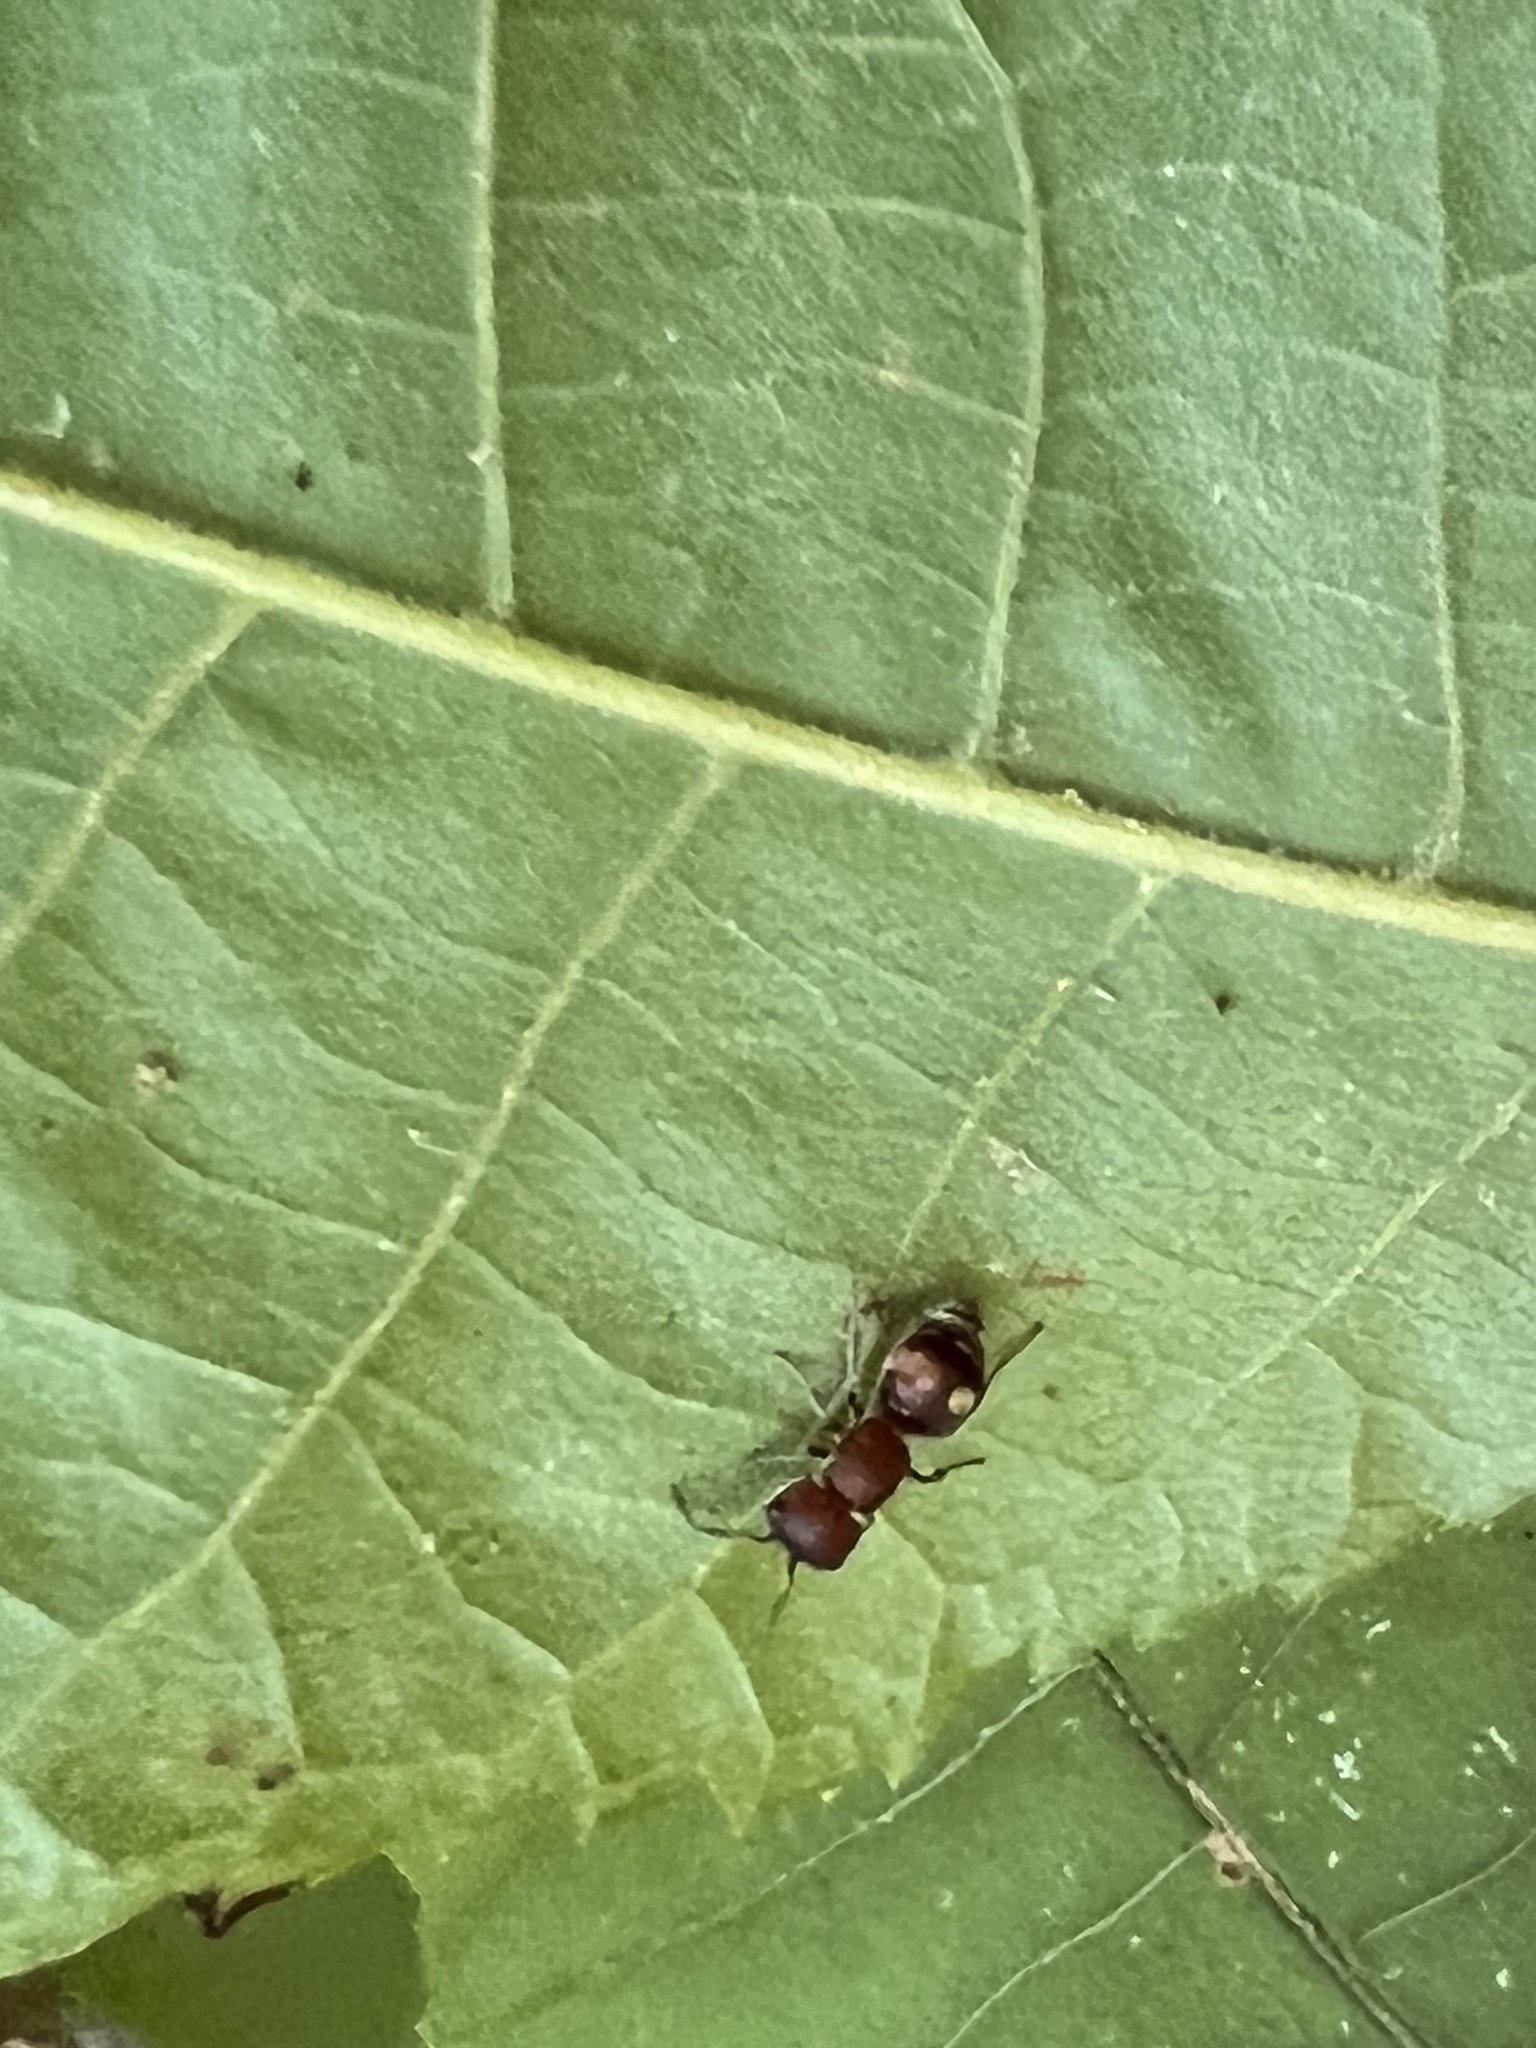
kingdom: Animalia
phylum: Arthropoda
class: Insecta
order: Hymenoptera
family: Mutillidae
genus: Pseudomethoca
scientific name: Pseudomethoca
